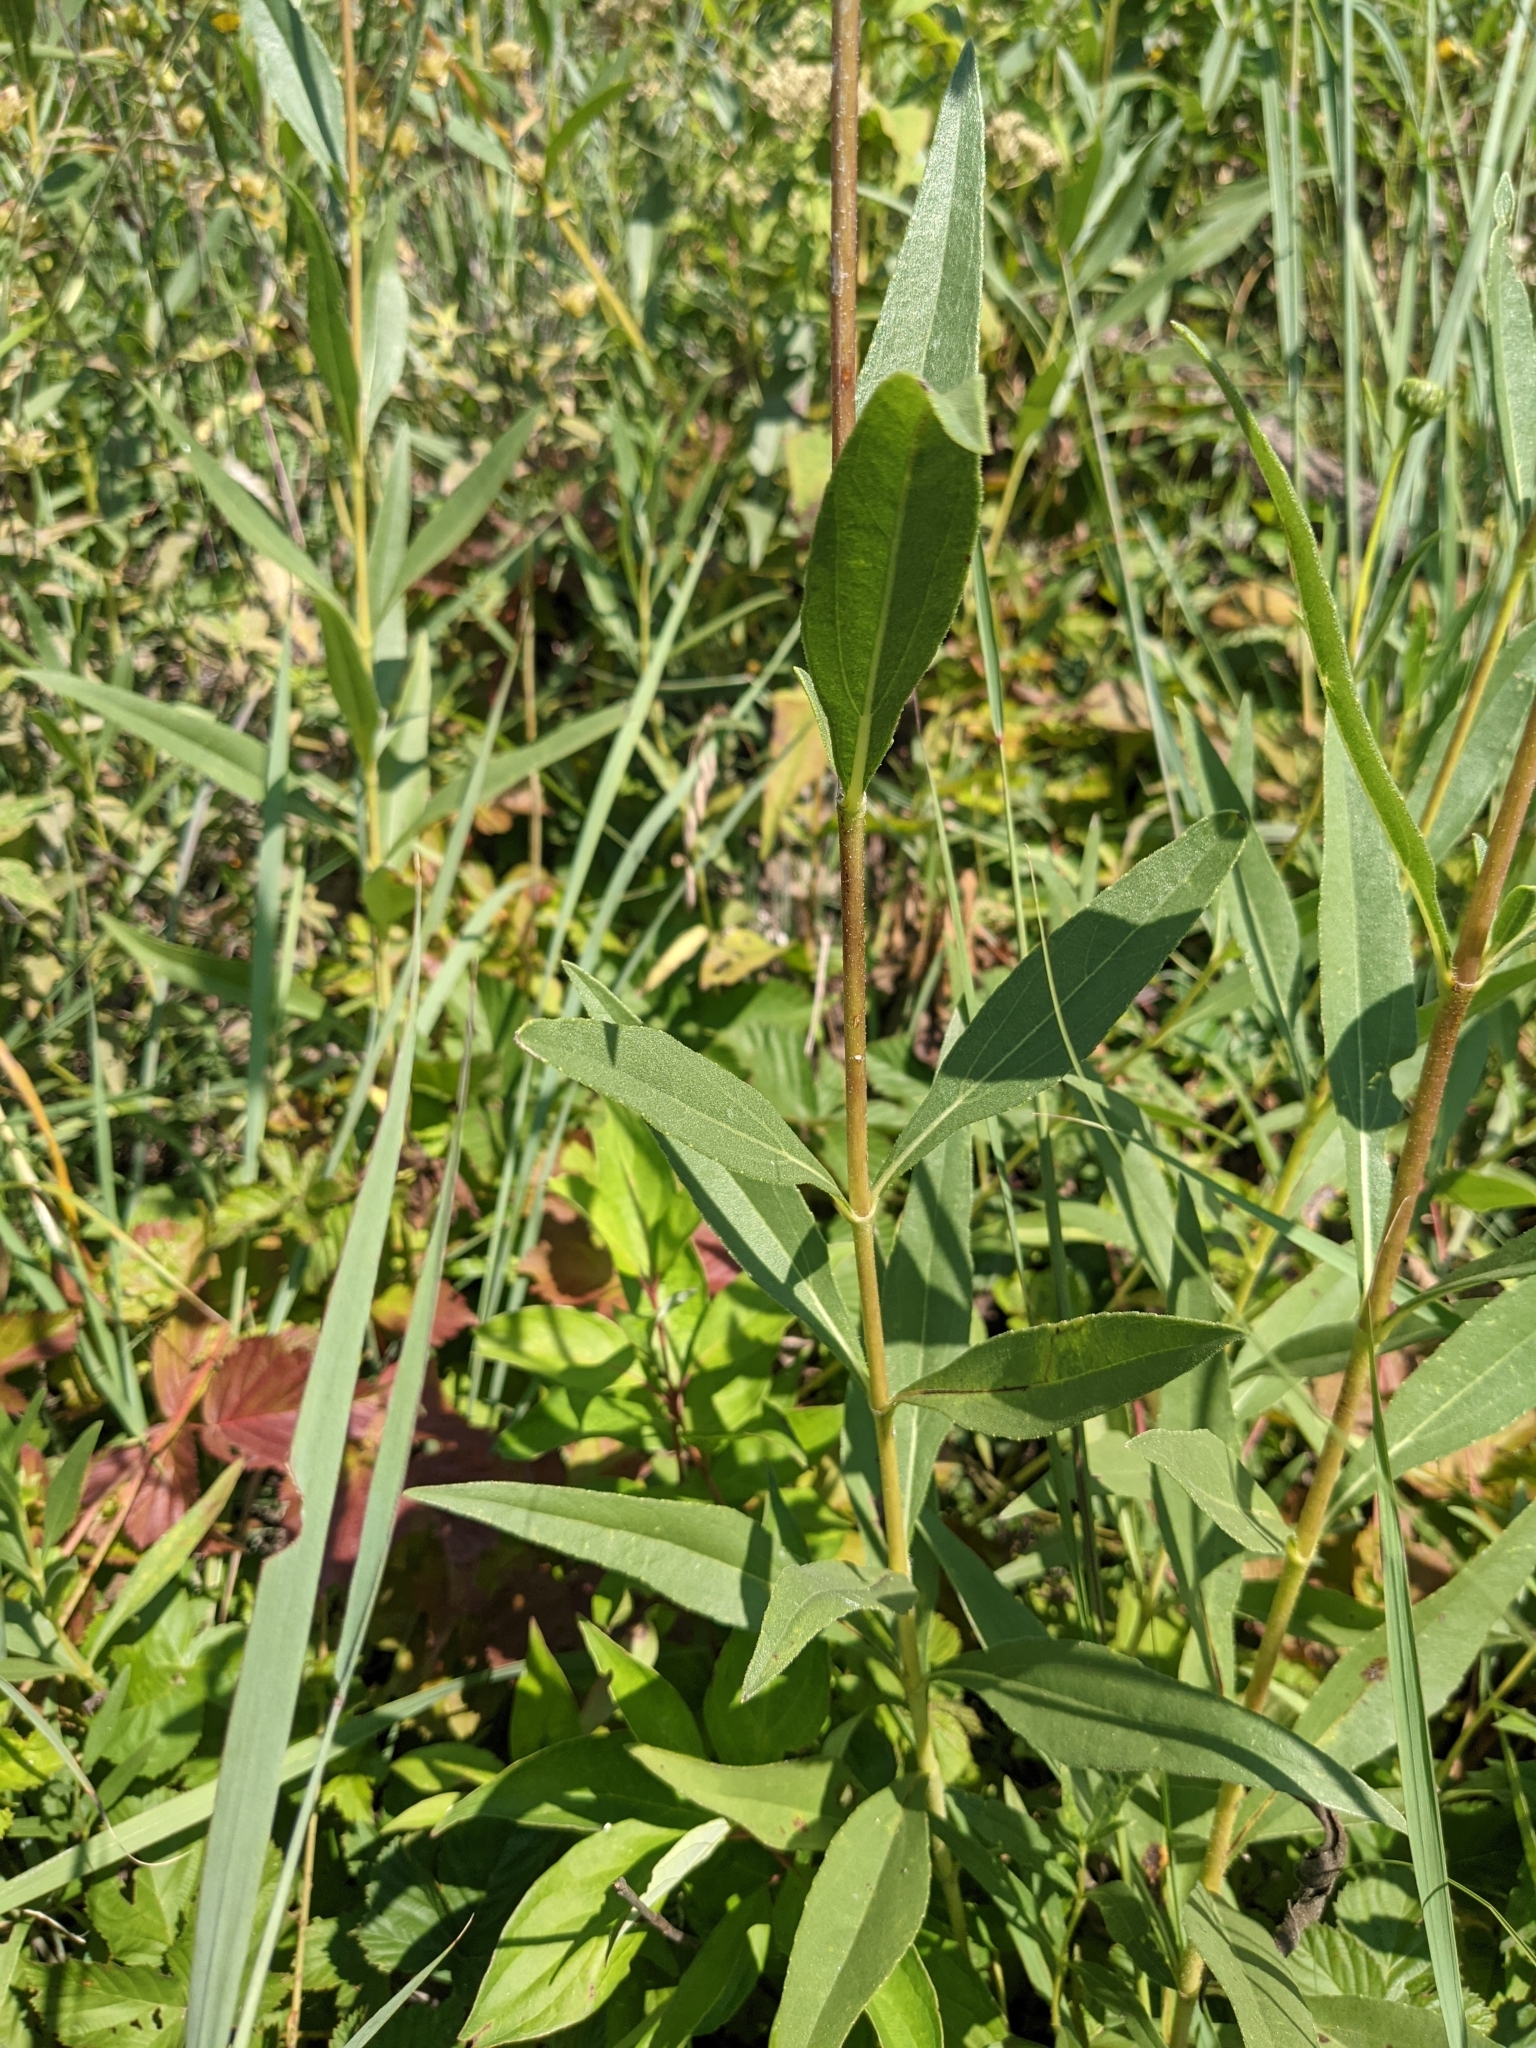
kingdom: Plantae
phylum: Tracheophyta
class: Magnoliopsida
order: Asterales
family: Asteraceae
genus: Helianthus
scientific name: Helianthus pauciflorus
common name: Stiff sunflower
